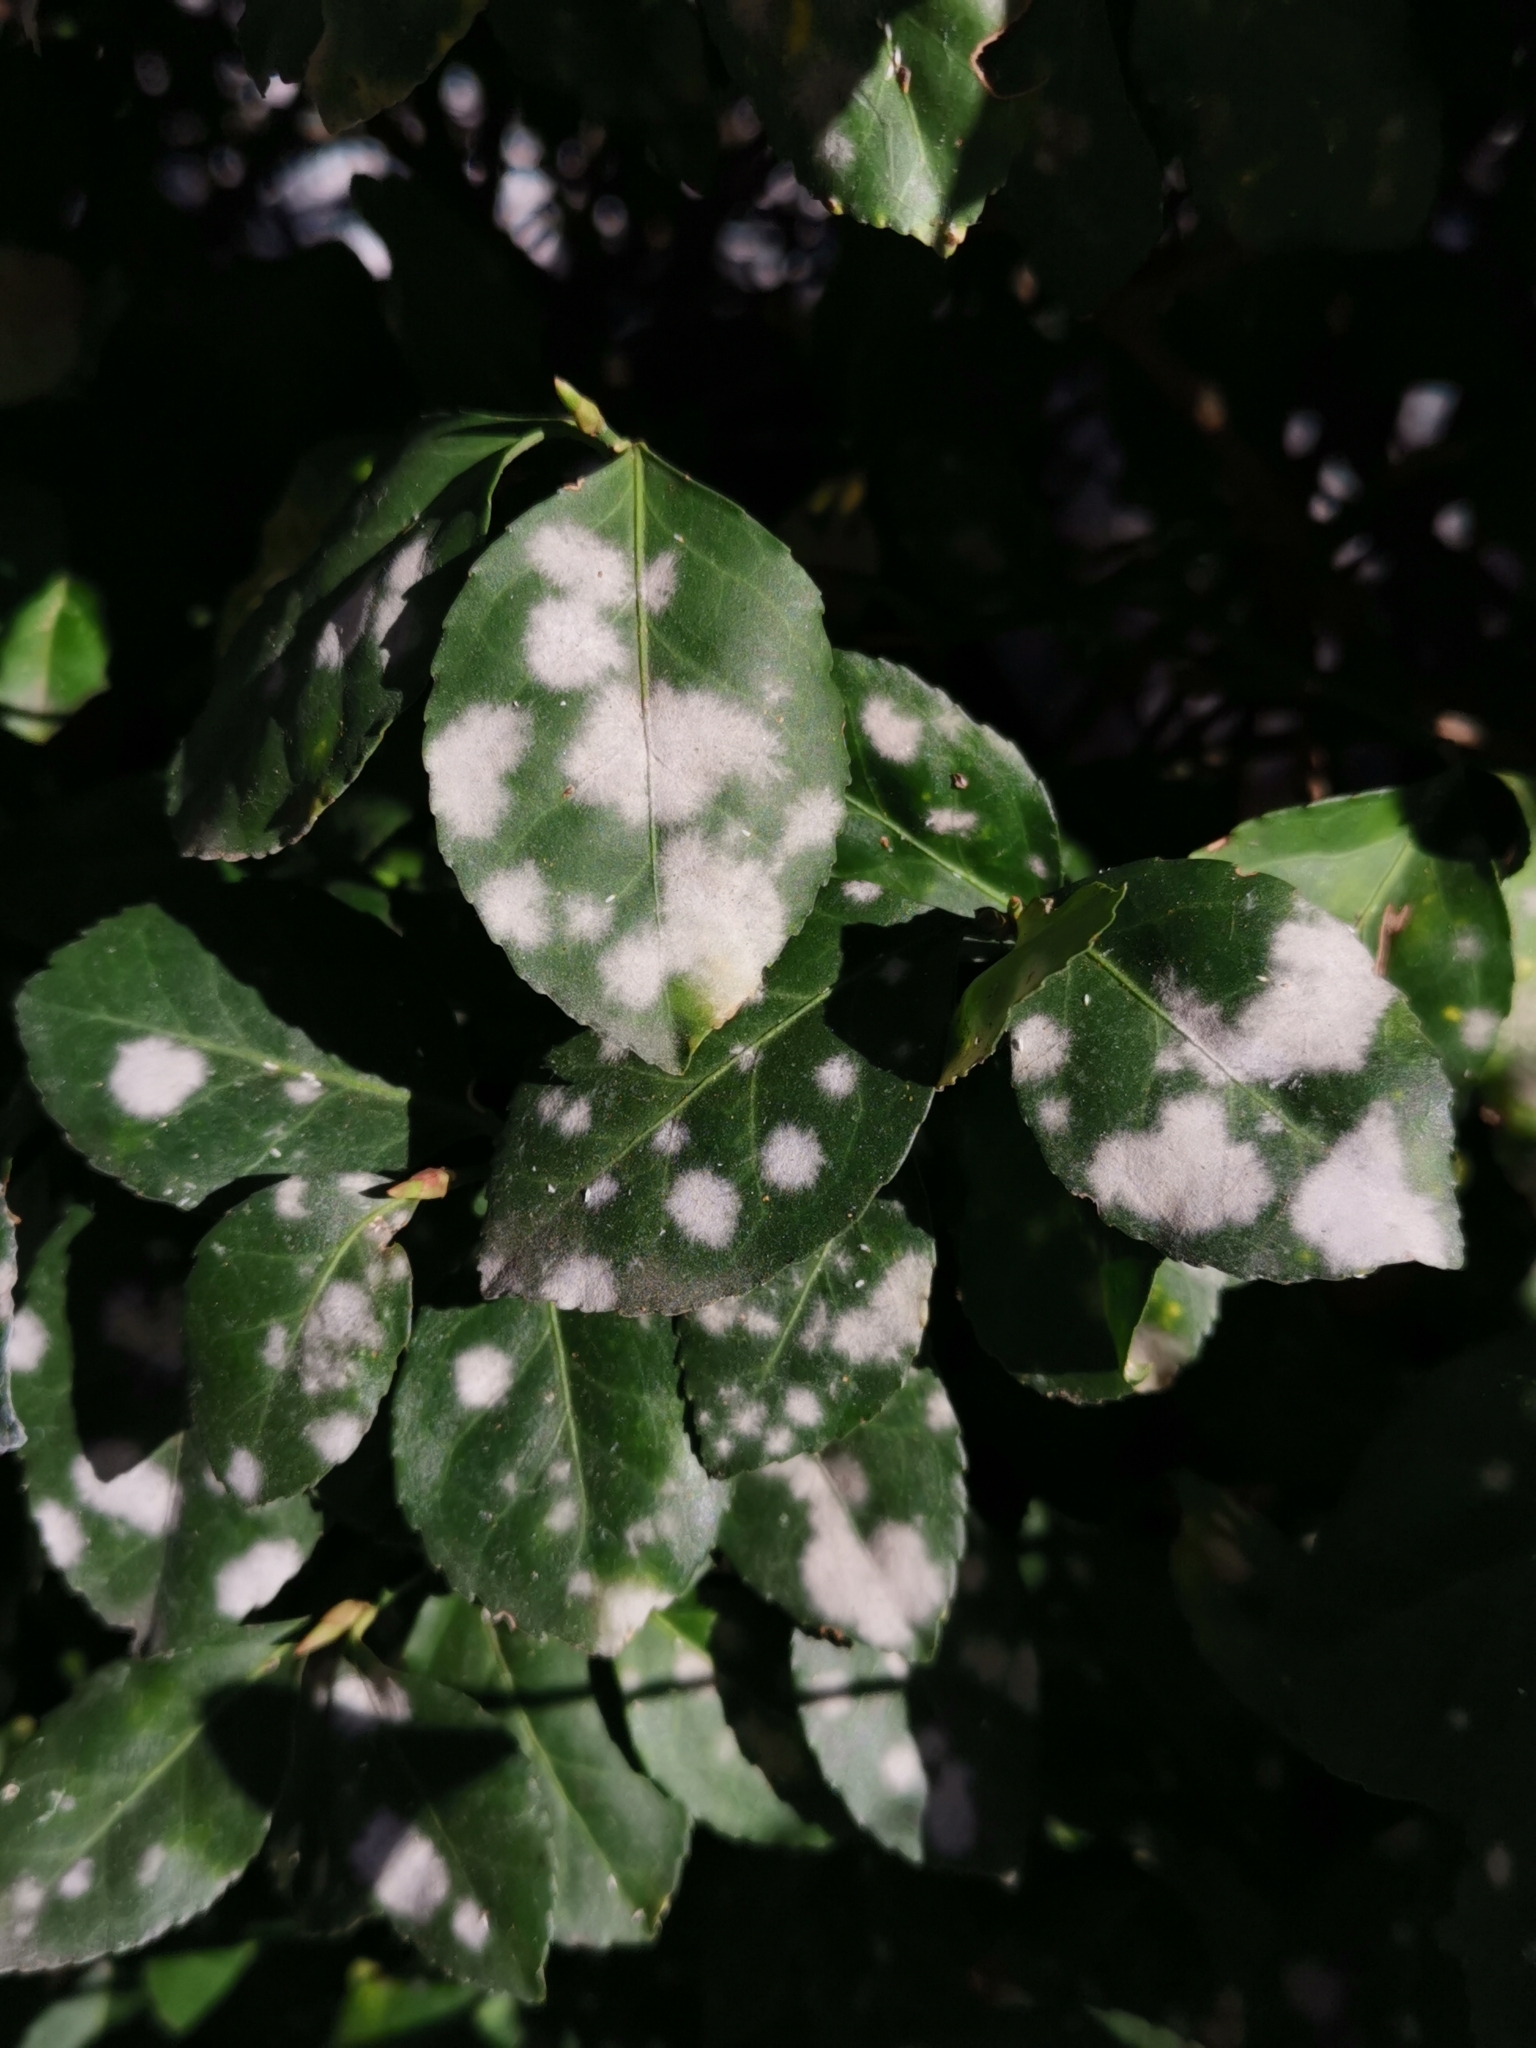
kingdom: Fungi
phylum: Ascomycota
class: Leotiomycetes
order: Helotiales
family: Erysiphaceae
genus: Erysiphe
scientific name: Erysiphe euonymicola
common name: Spindletree mildew
